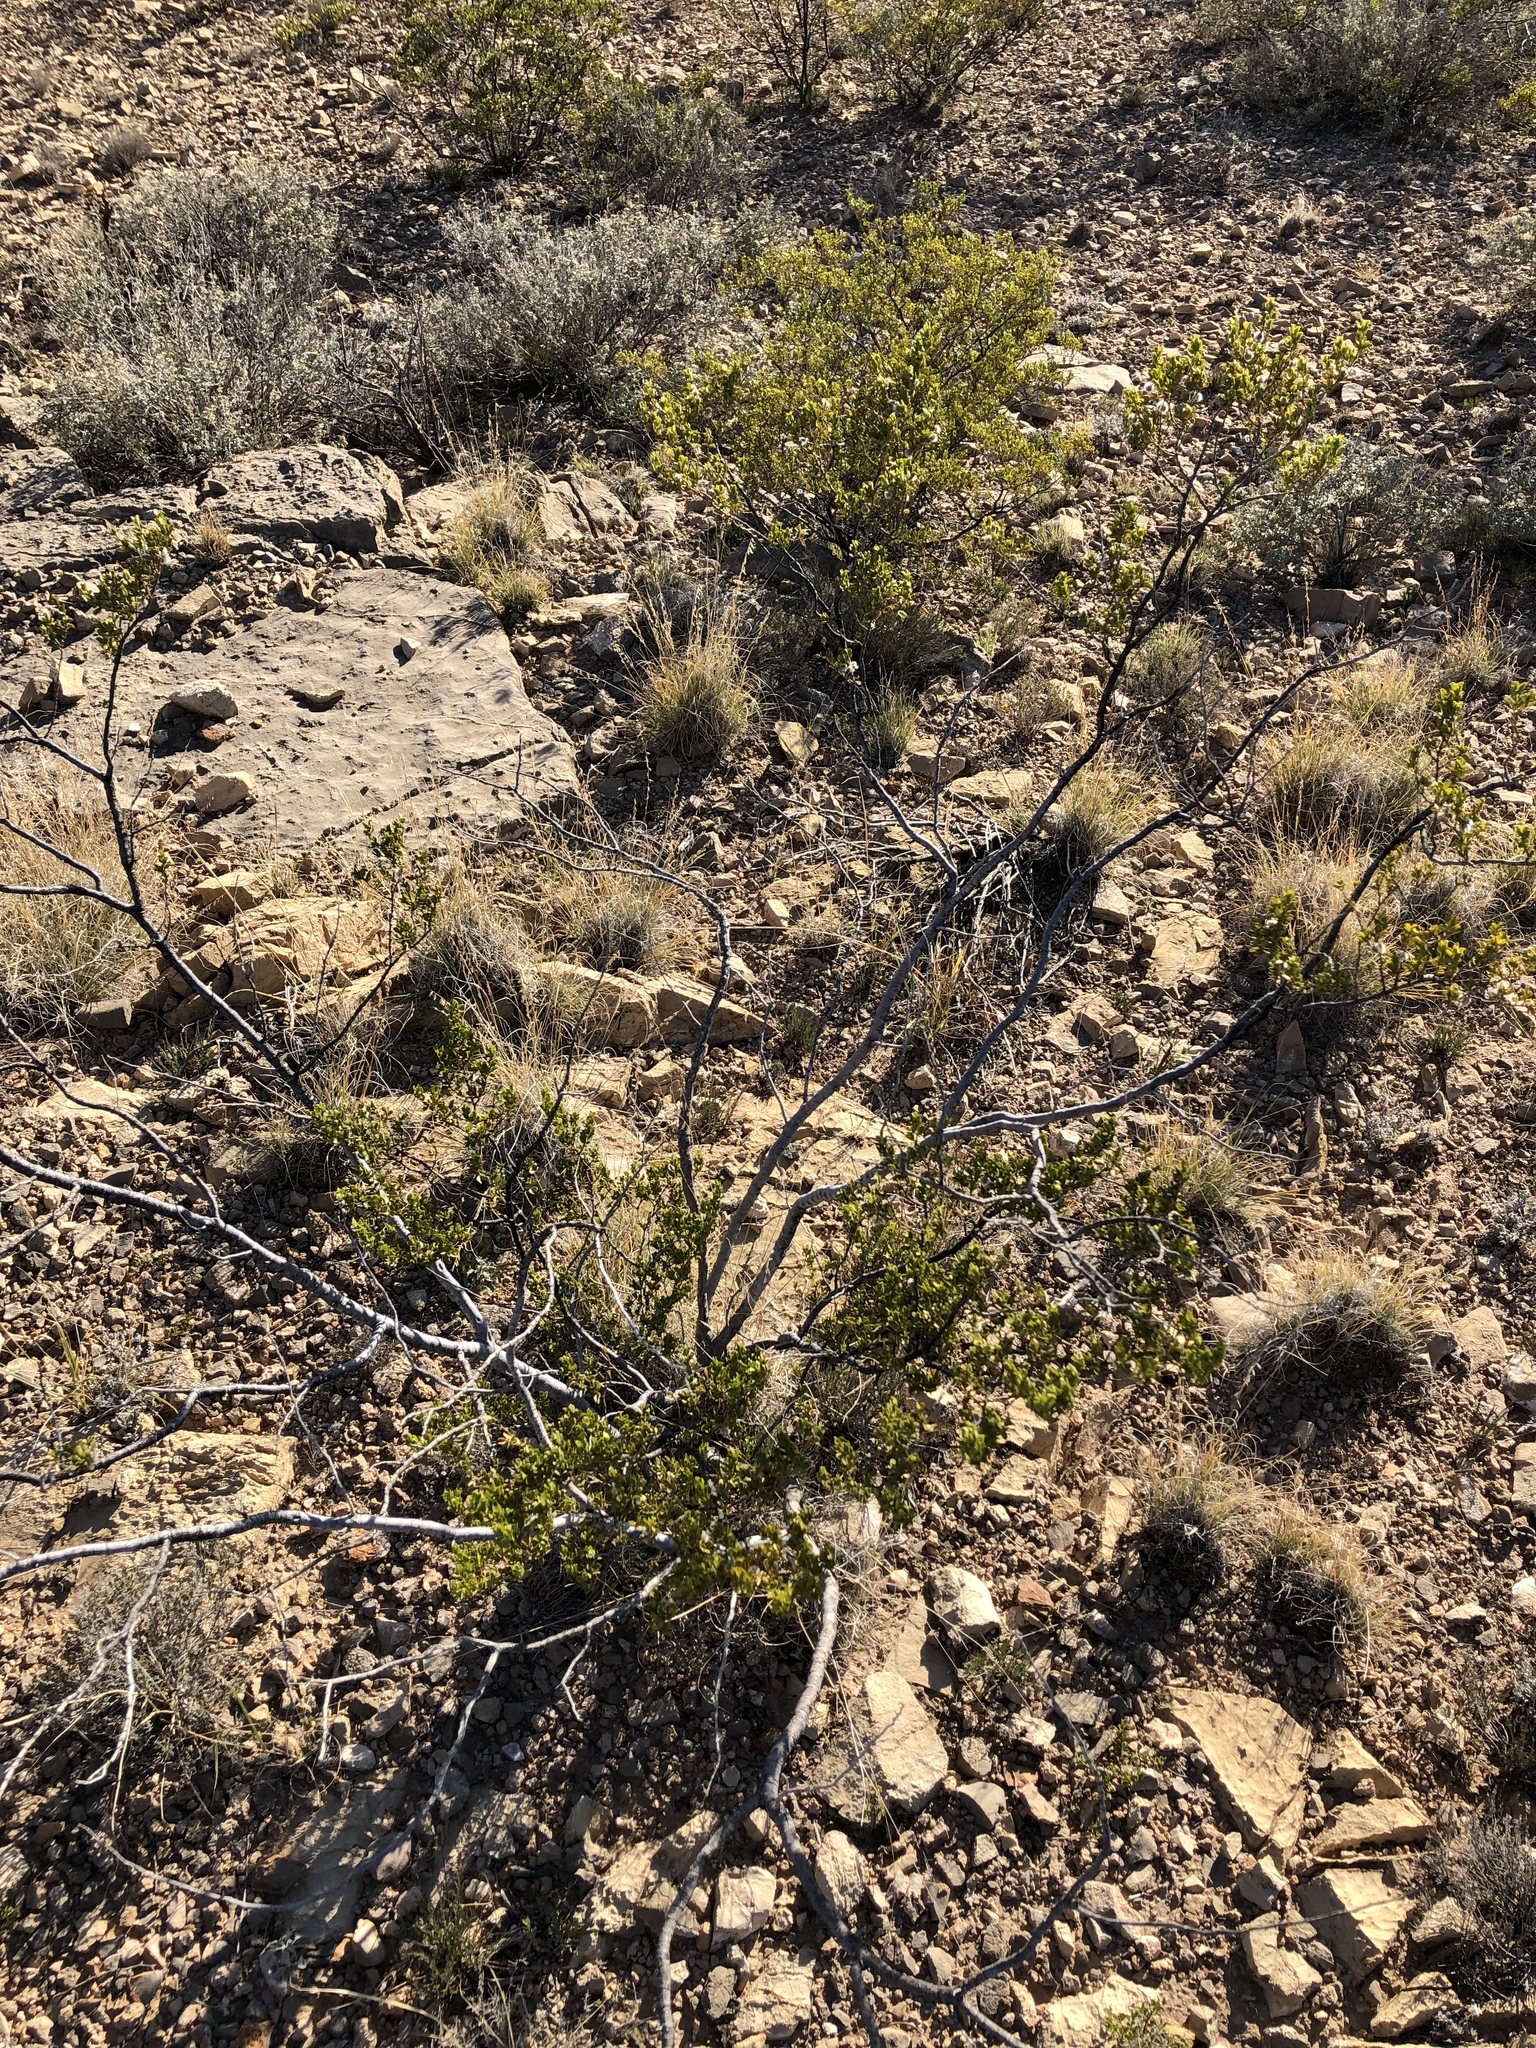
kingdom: Plantae
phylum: Tracheophyta
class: Magnoliopsida
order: Zygophyllales
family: Zygophyllaceae
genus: Larrea
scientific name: Larrea tridentata
